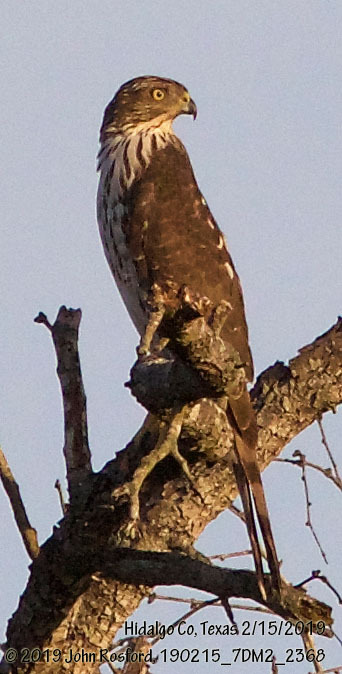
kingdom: Animalia
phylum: Chordata
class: Aves
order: Accipitriformes
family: Accipitridae
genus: Accipiter
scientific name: Accipiter cooperii
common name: Cooper's hawk
